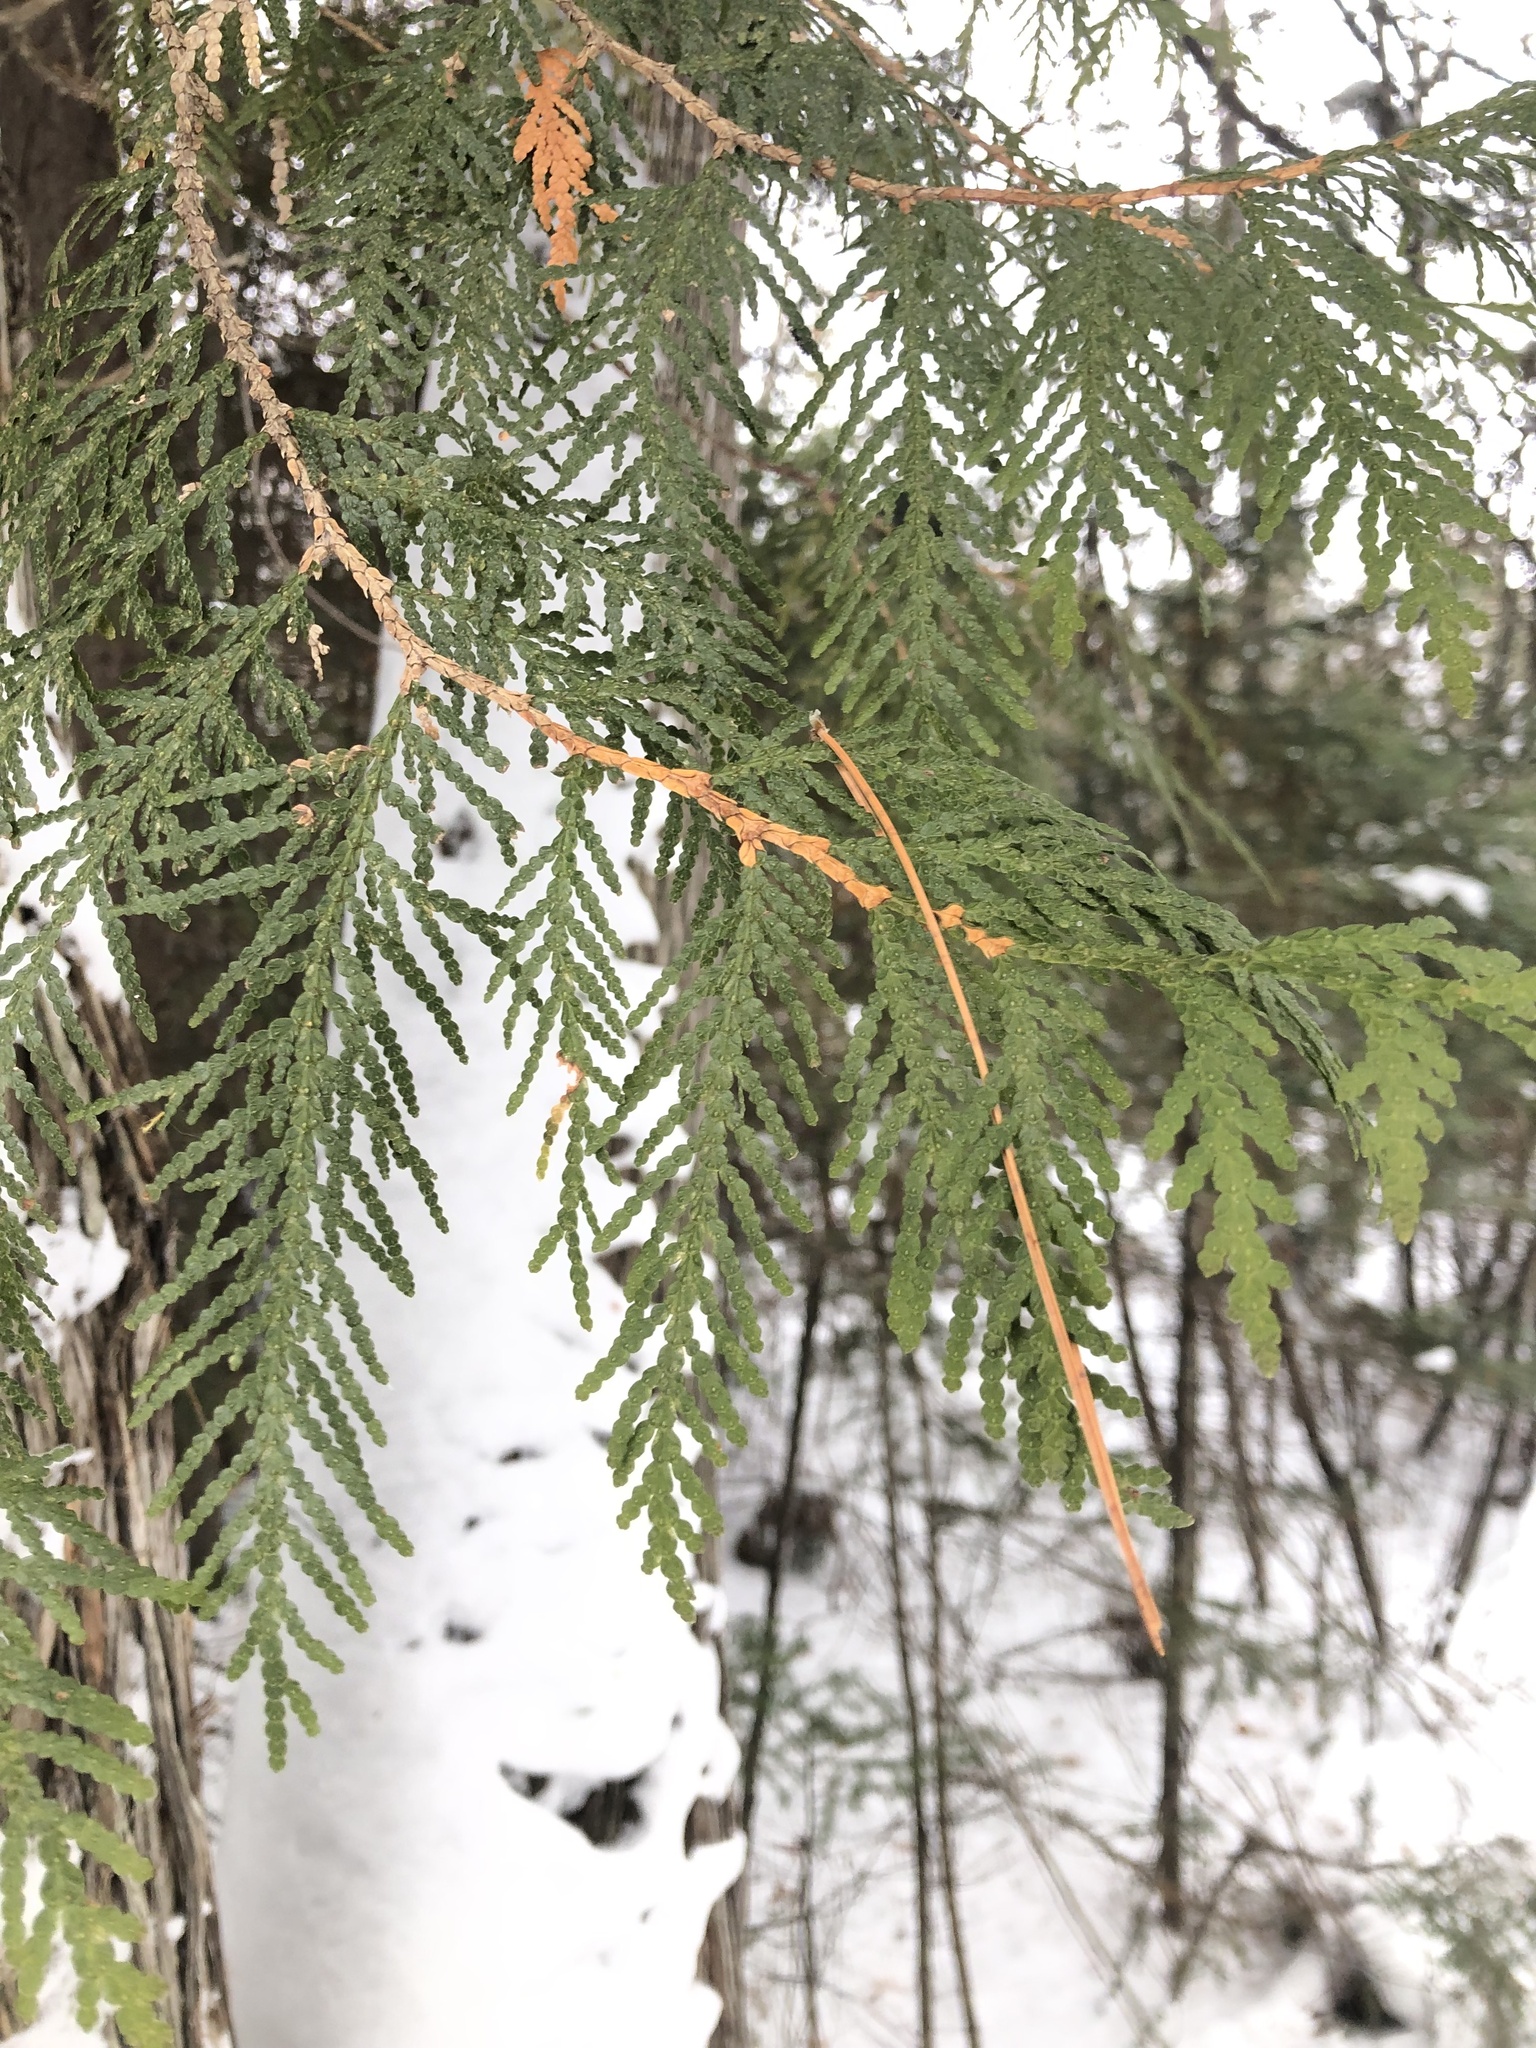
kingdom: Plantae
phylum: Tracheophyta
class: Pinopsida
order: Pinales
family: Cupressaceae
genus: Thuja
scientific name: Thuja occidentalis
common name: Northern white-cedar
